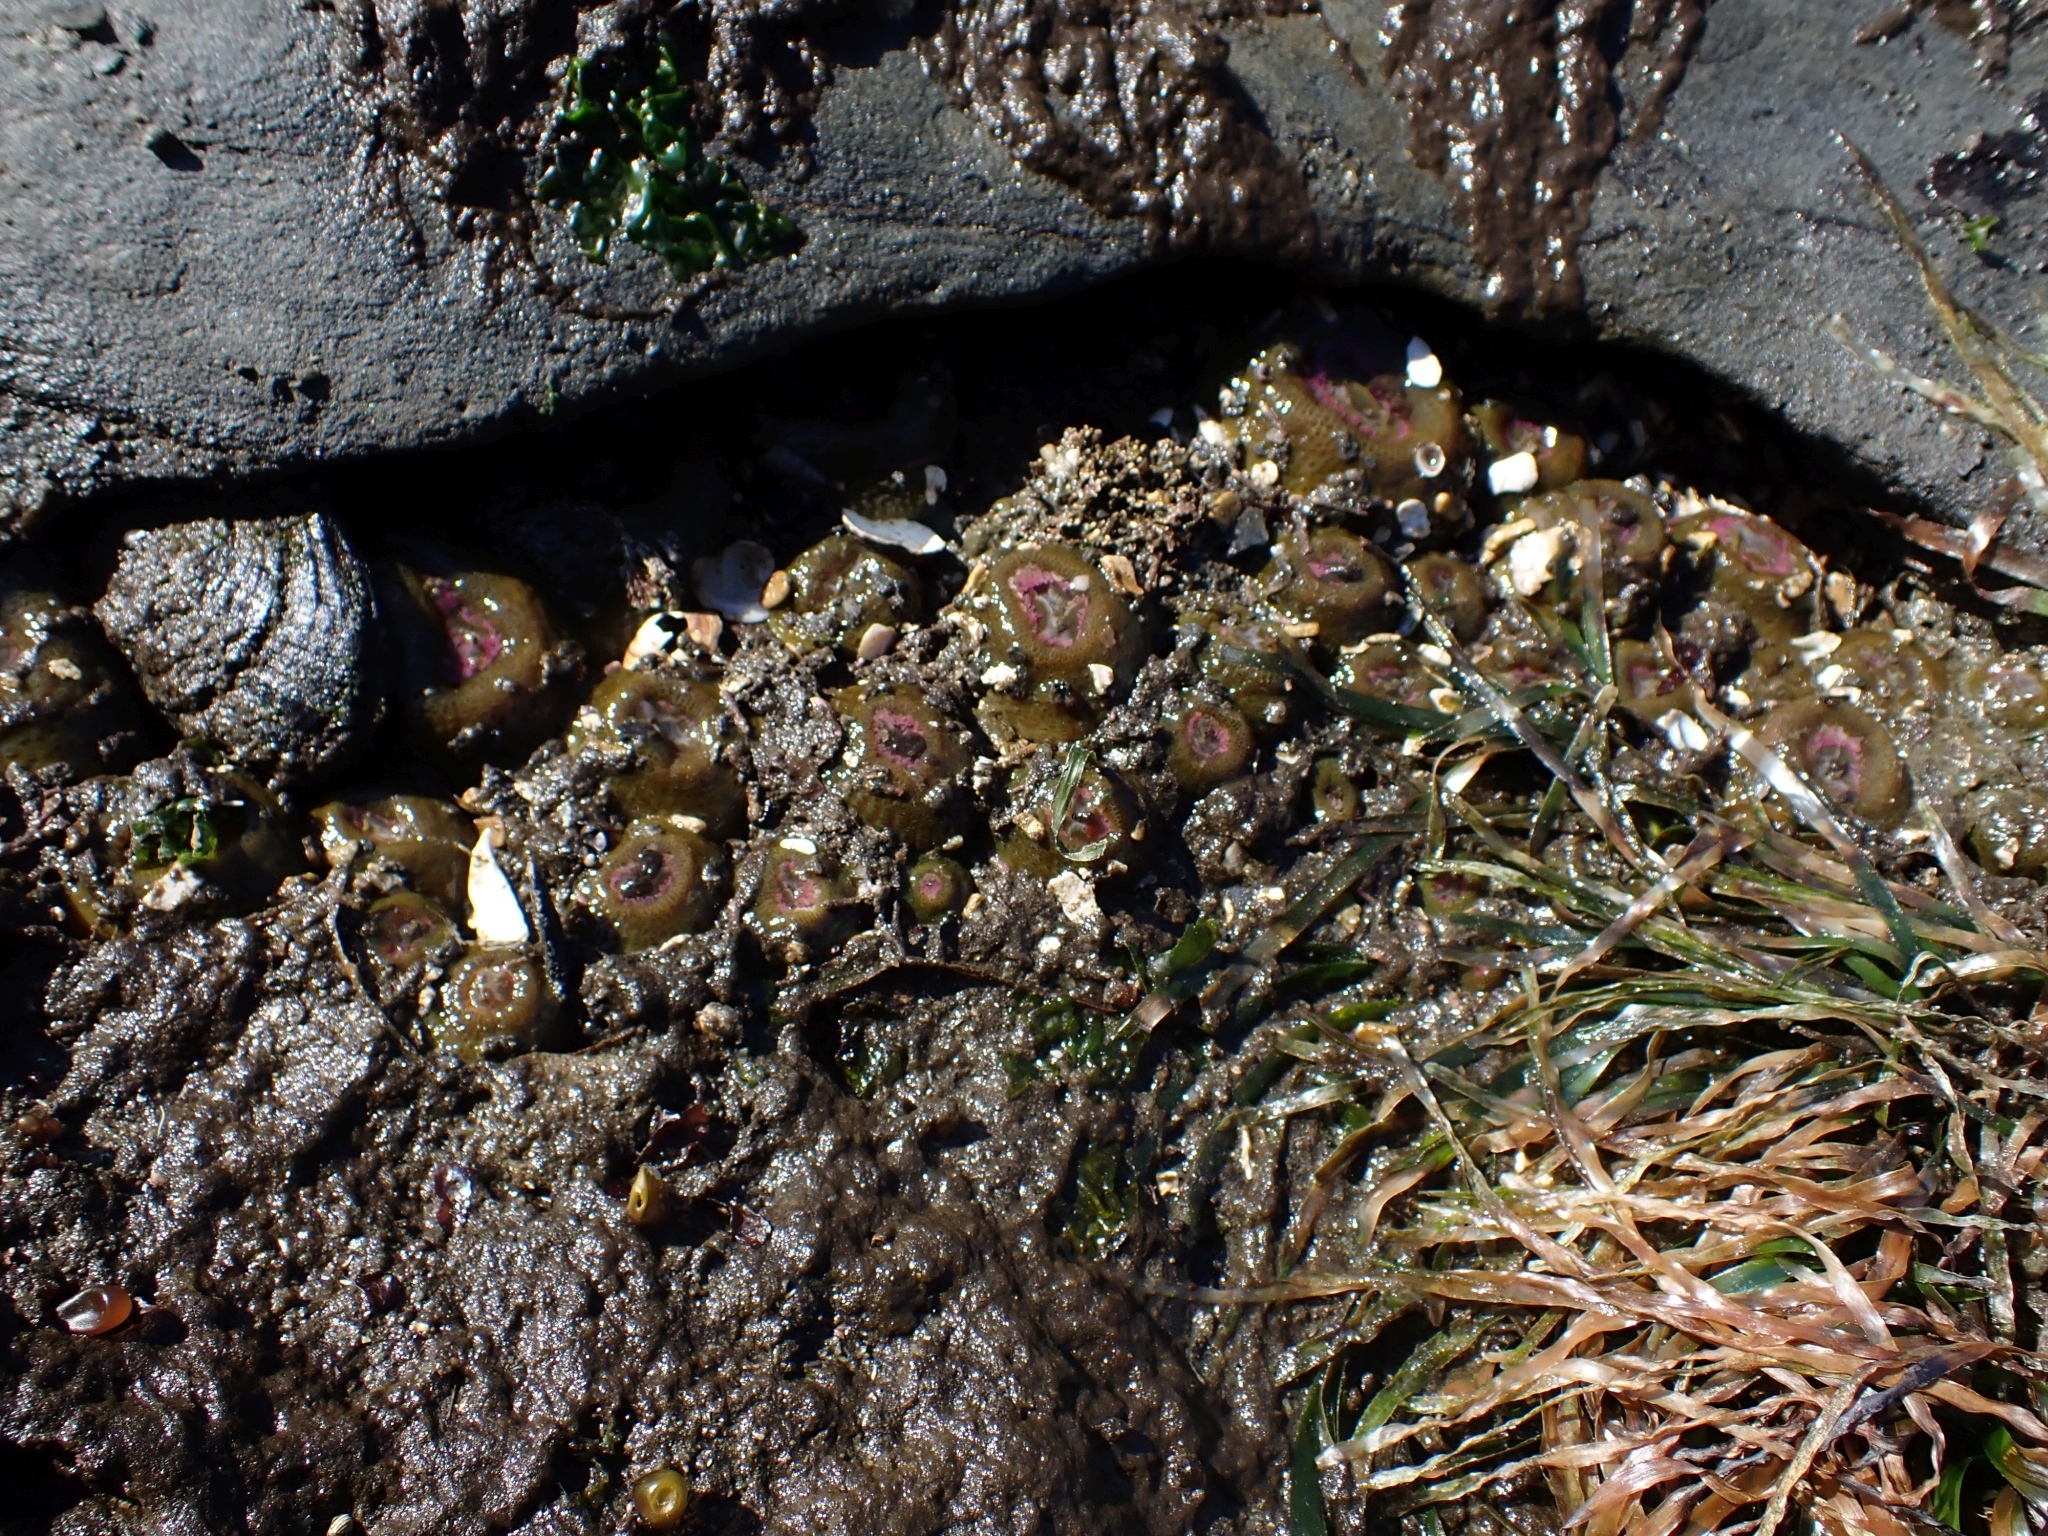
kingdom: Animalia
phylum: Cnidaria
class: Anthozoa
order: Actiniaria
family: Actiniidae
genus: Anthopleura
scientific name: Anthopleura elegantissima
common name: Clonal anemone
